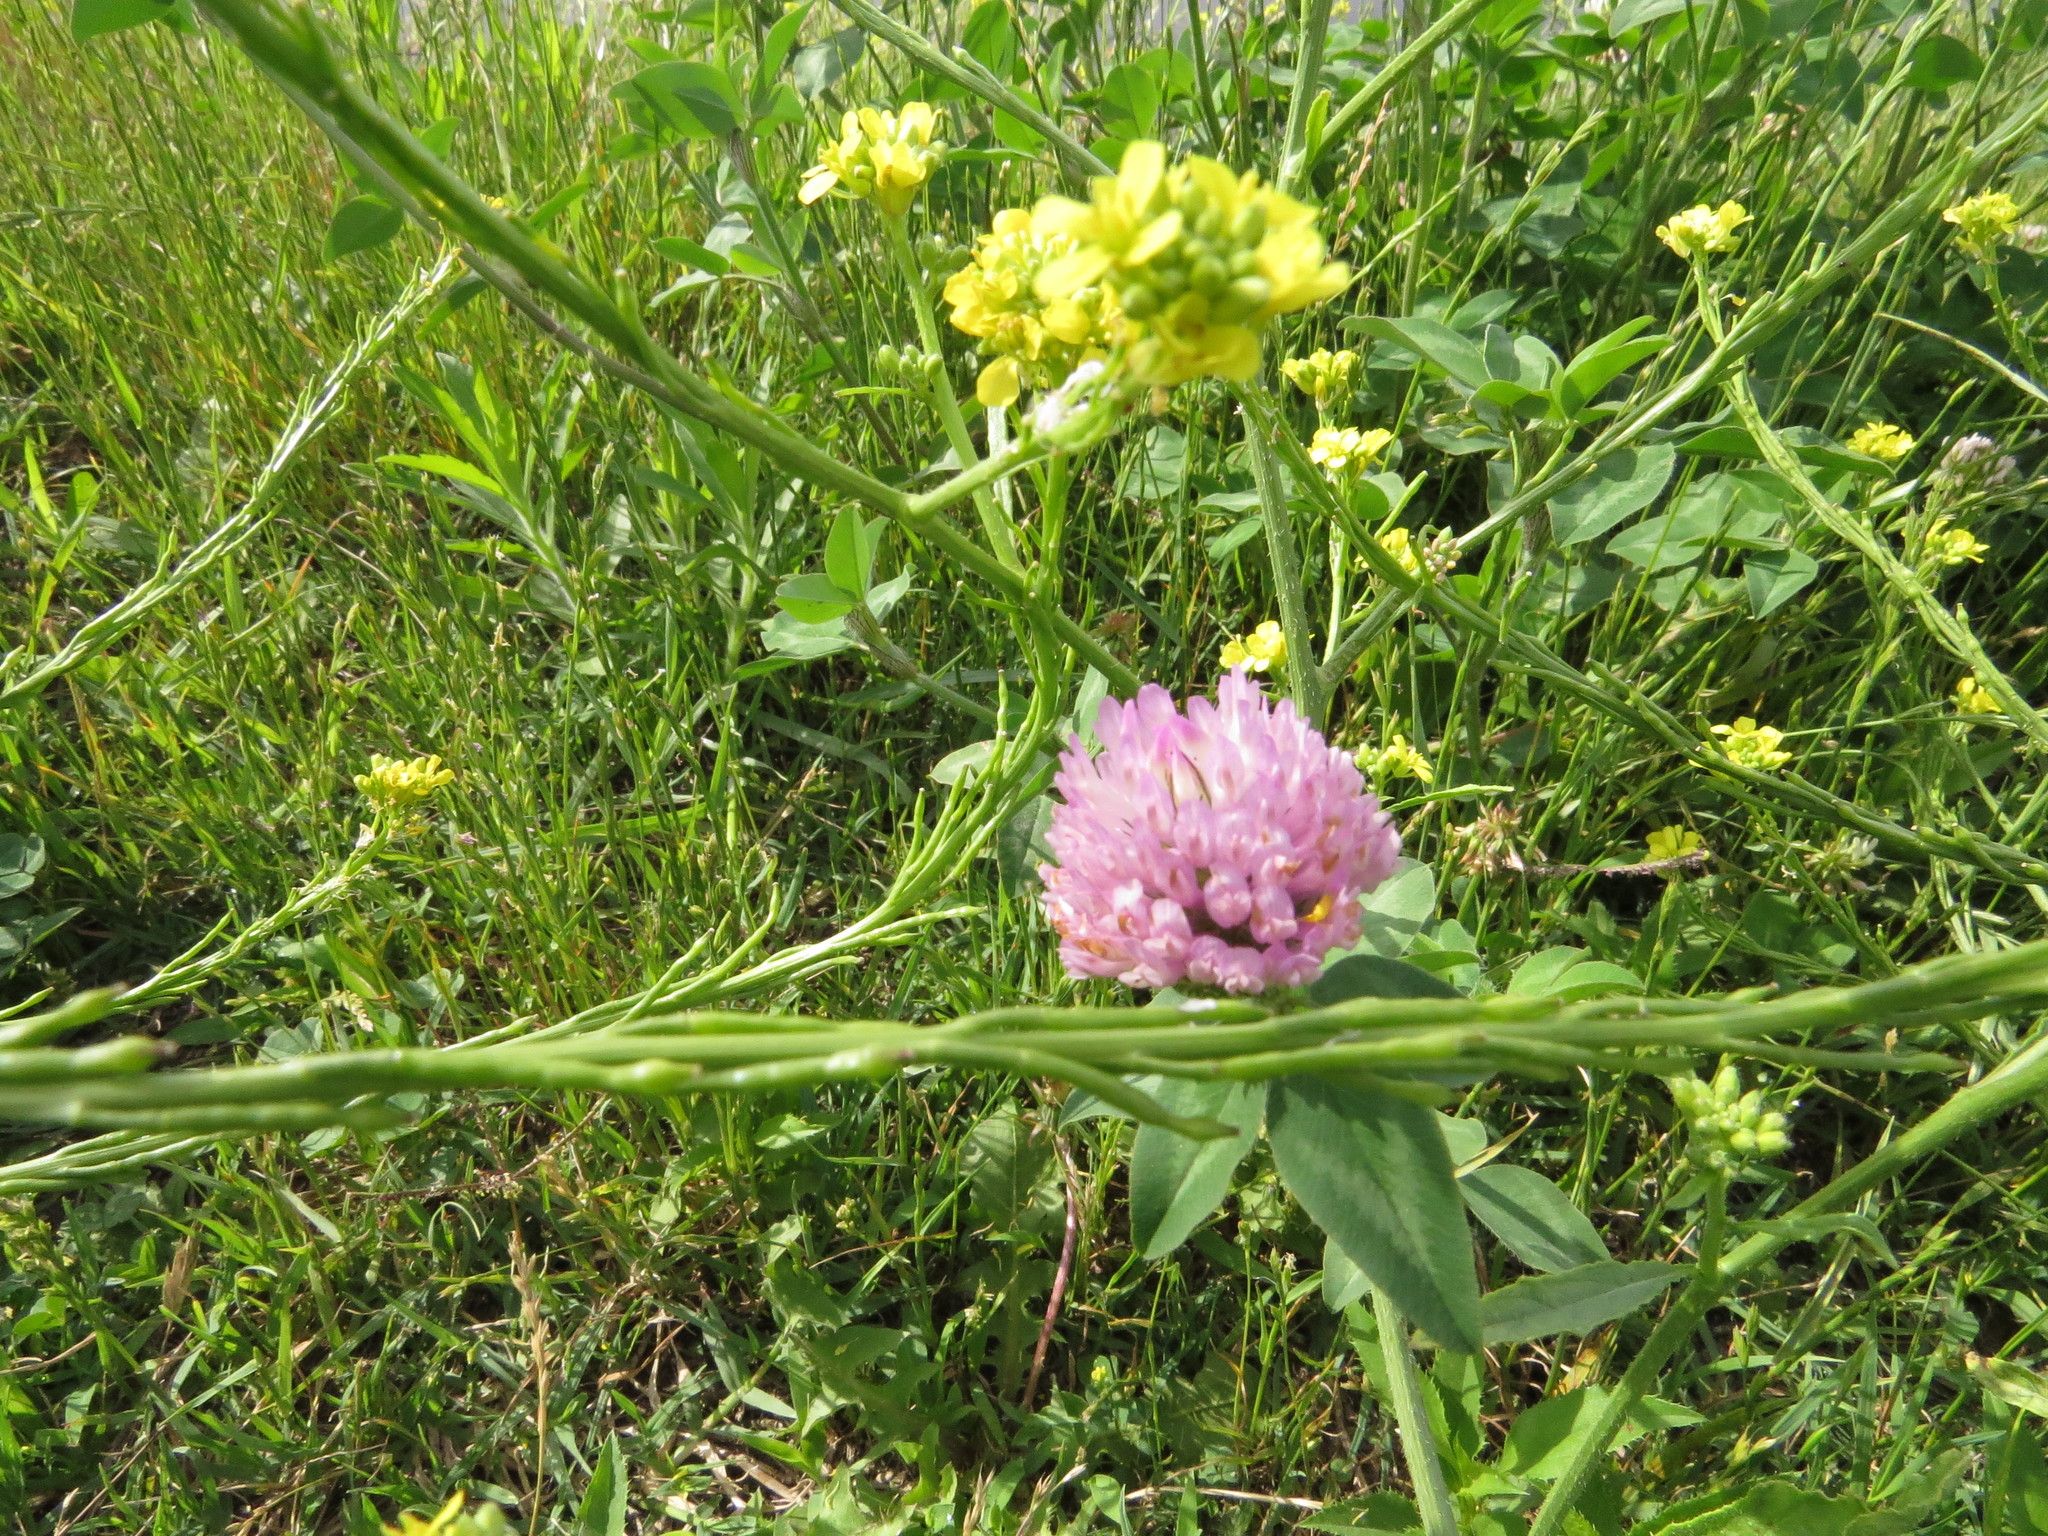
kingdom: Plantae
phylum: Tracheophyta
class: Magnoliopsida
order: Fabales
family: Fabaceae
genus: Trifolium
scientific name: Trifolium pratense
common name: Red clover
